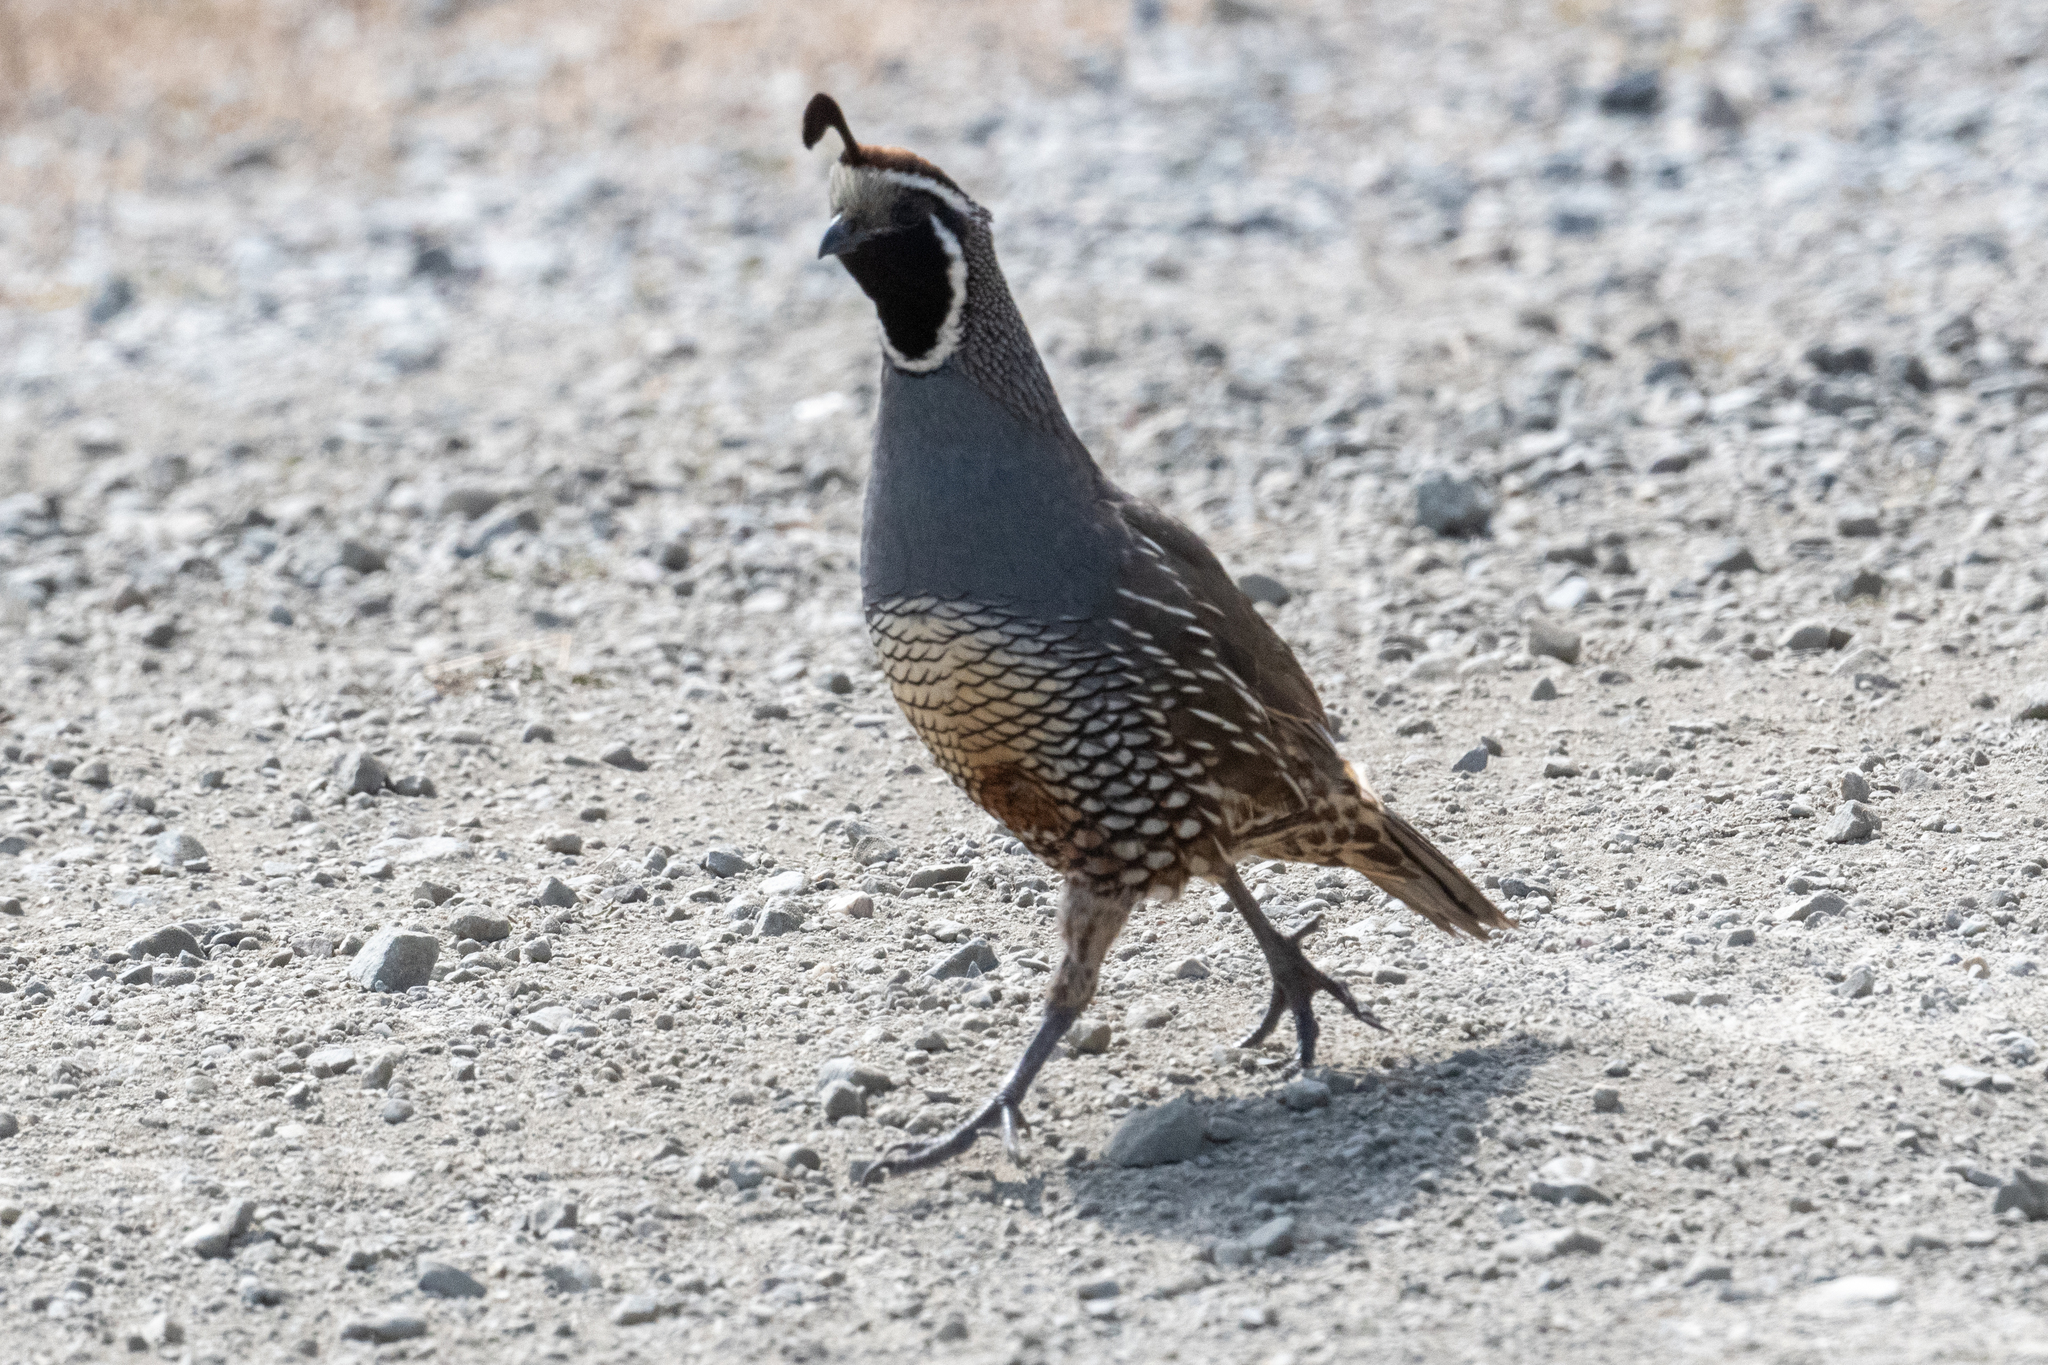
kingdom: Animalia
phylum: Chordata
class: Aves
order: Galliformes
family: Odontophoridae
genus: Callipepla
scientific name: Callipepla californica
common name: California quail
